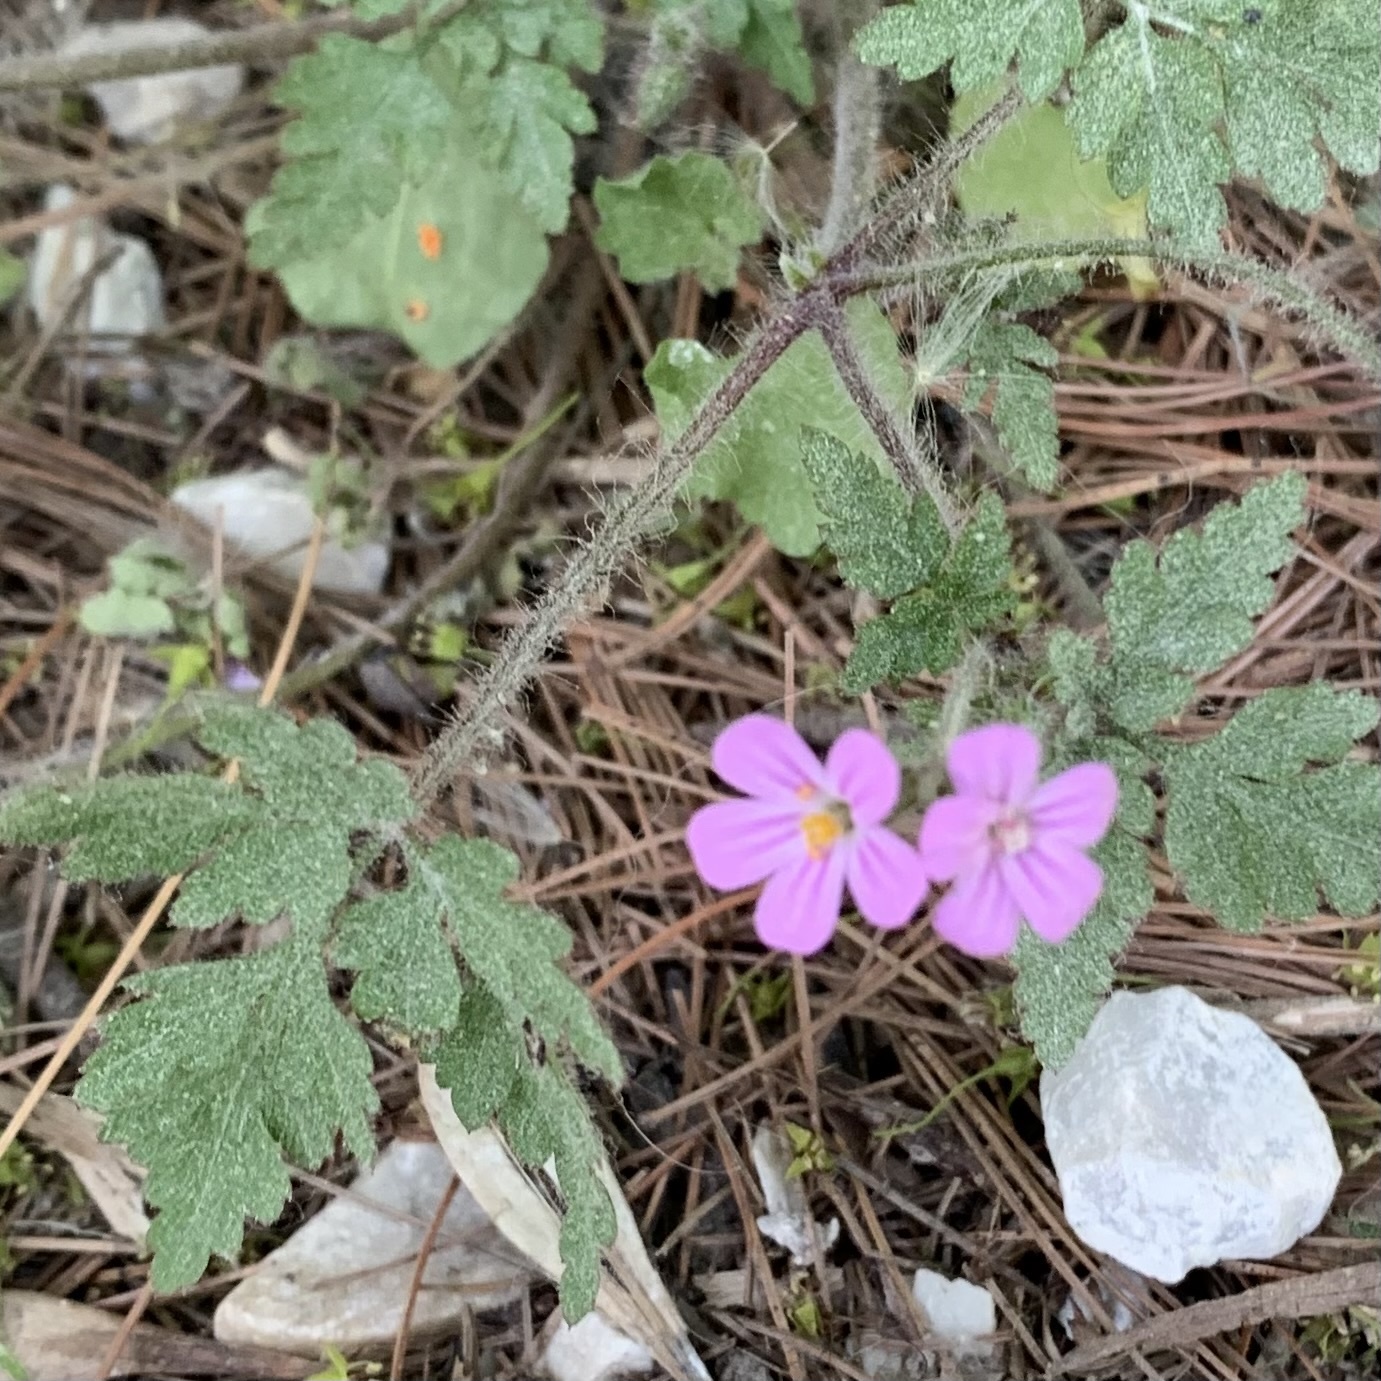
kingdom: Plantae
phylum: Tracheophyta
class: Magnoliopsida
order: Geraniales
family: Geraniaceae
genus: Geranium
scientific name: Geranium robertianum
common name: Herb-robert
